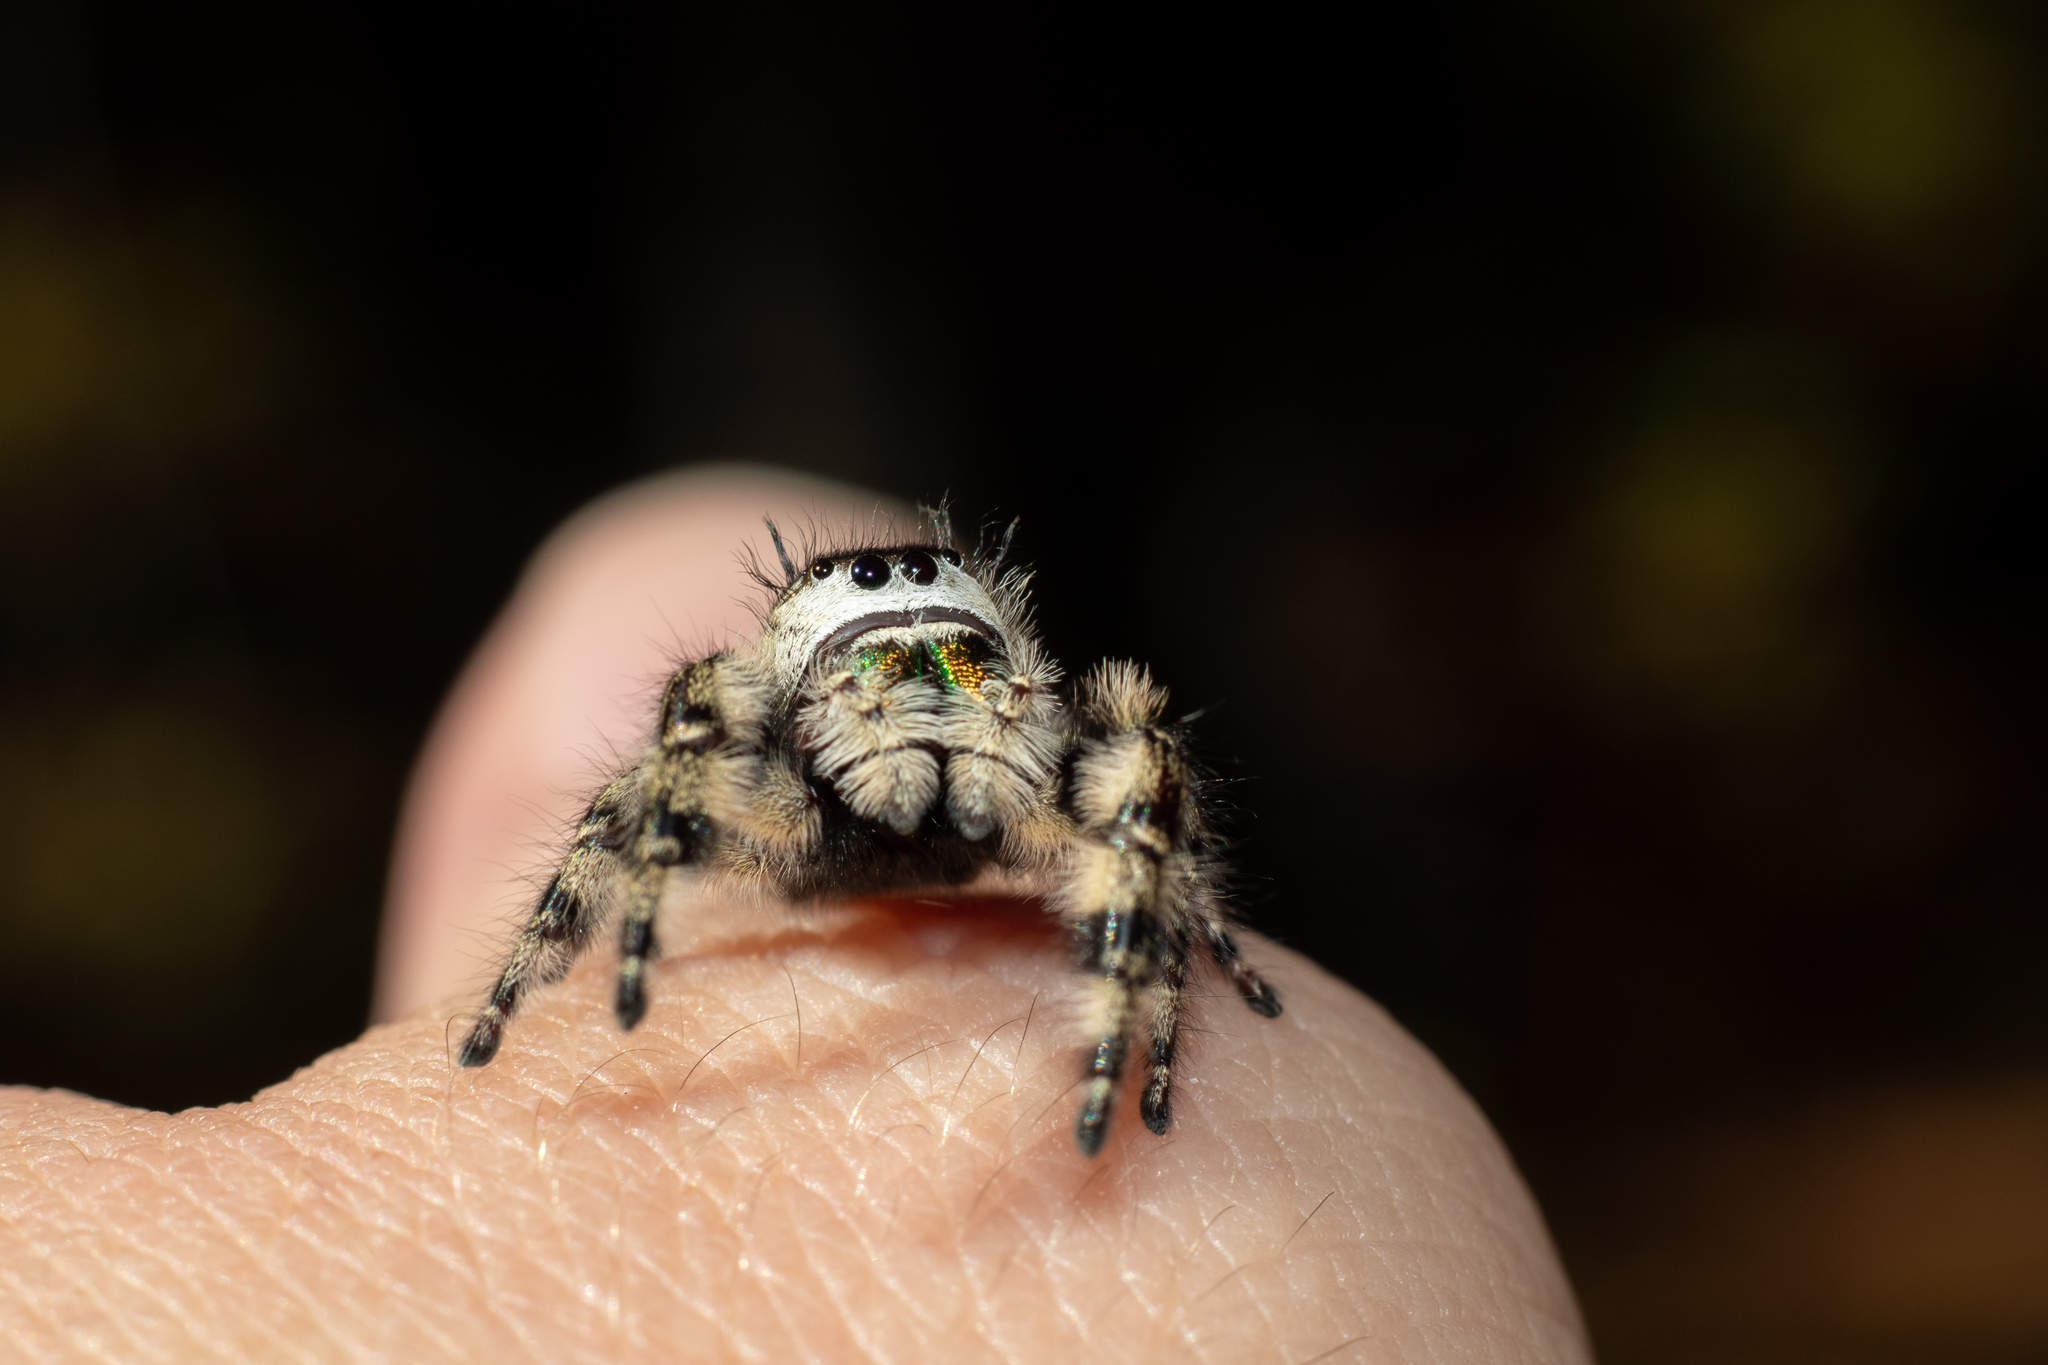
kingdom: Animalia
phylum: Arthropoda
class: Arachnida
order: Araneae
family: Salticidae
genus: Phidippus
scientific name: Phidippus otiosus
